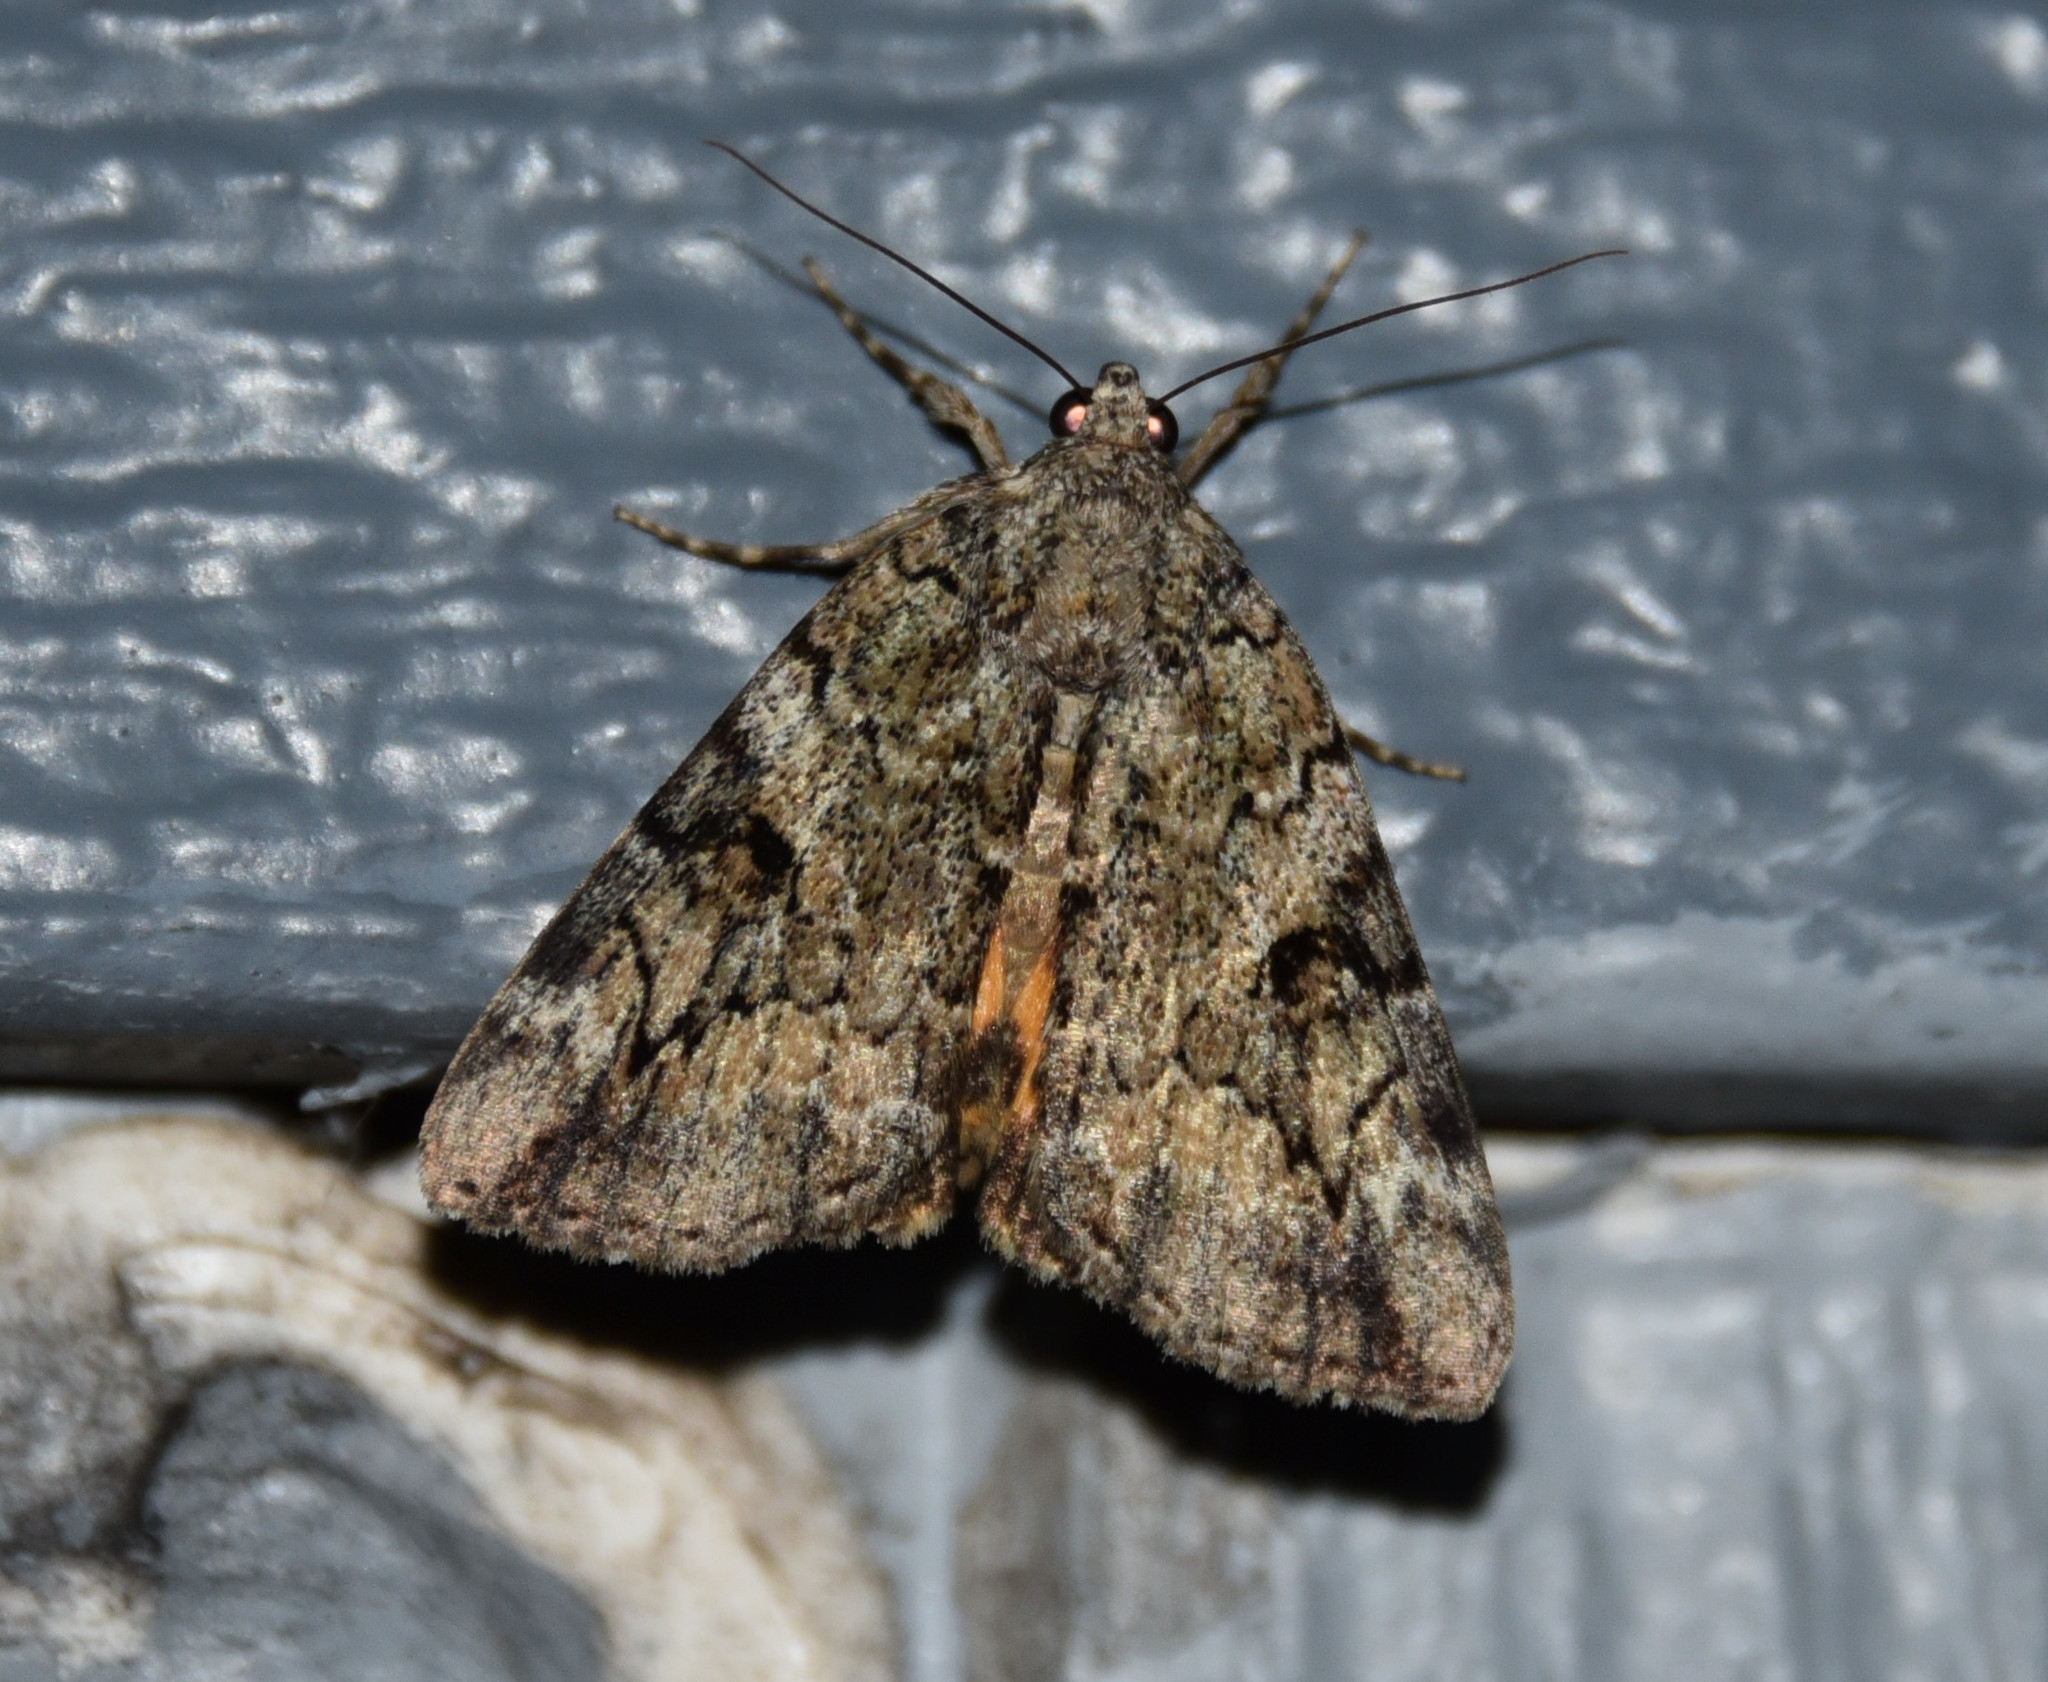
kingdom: Animalia
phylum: Arthropoda
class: Insecta
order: Lepidoptera
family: Erebidae
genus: Catocala
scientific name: Catocala micronympha
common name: Little nymph underwing
